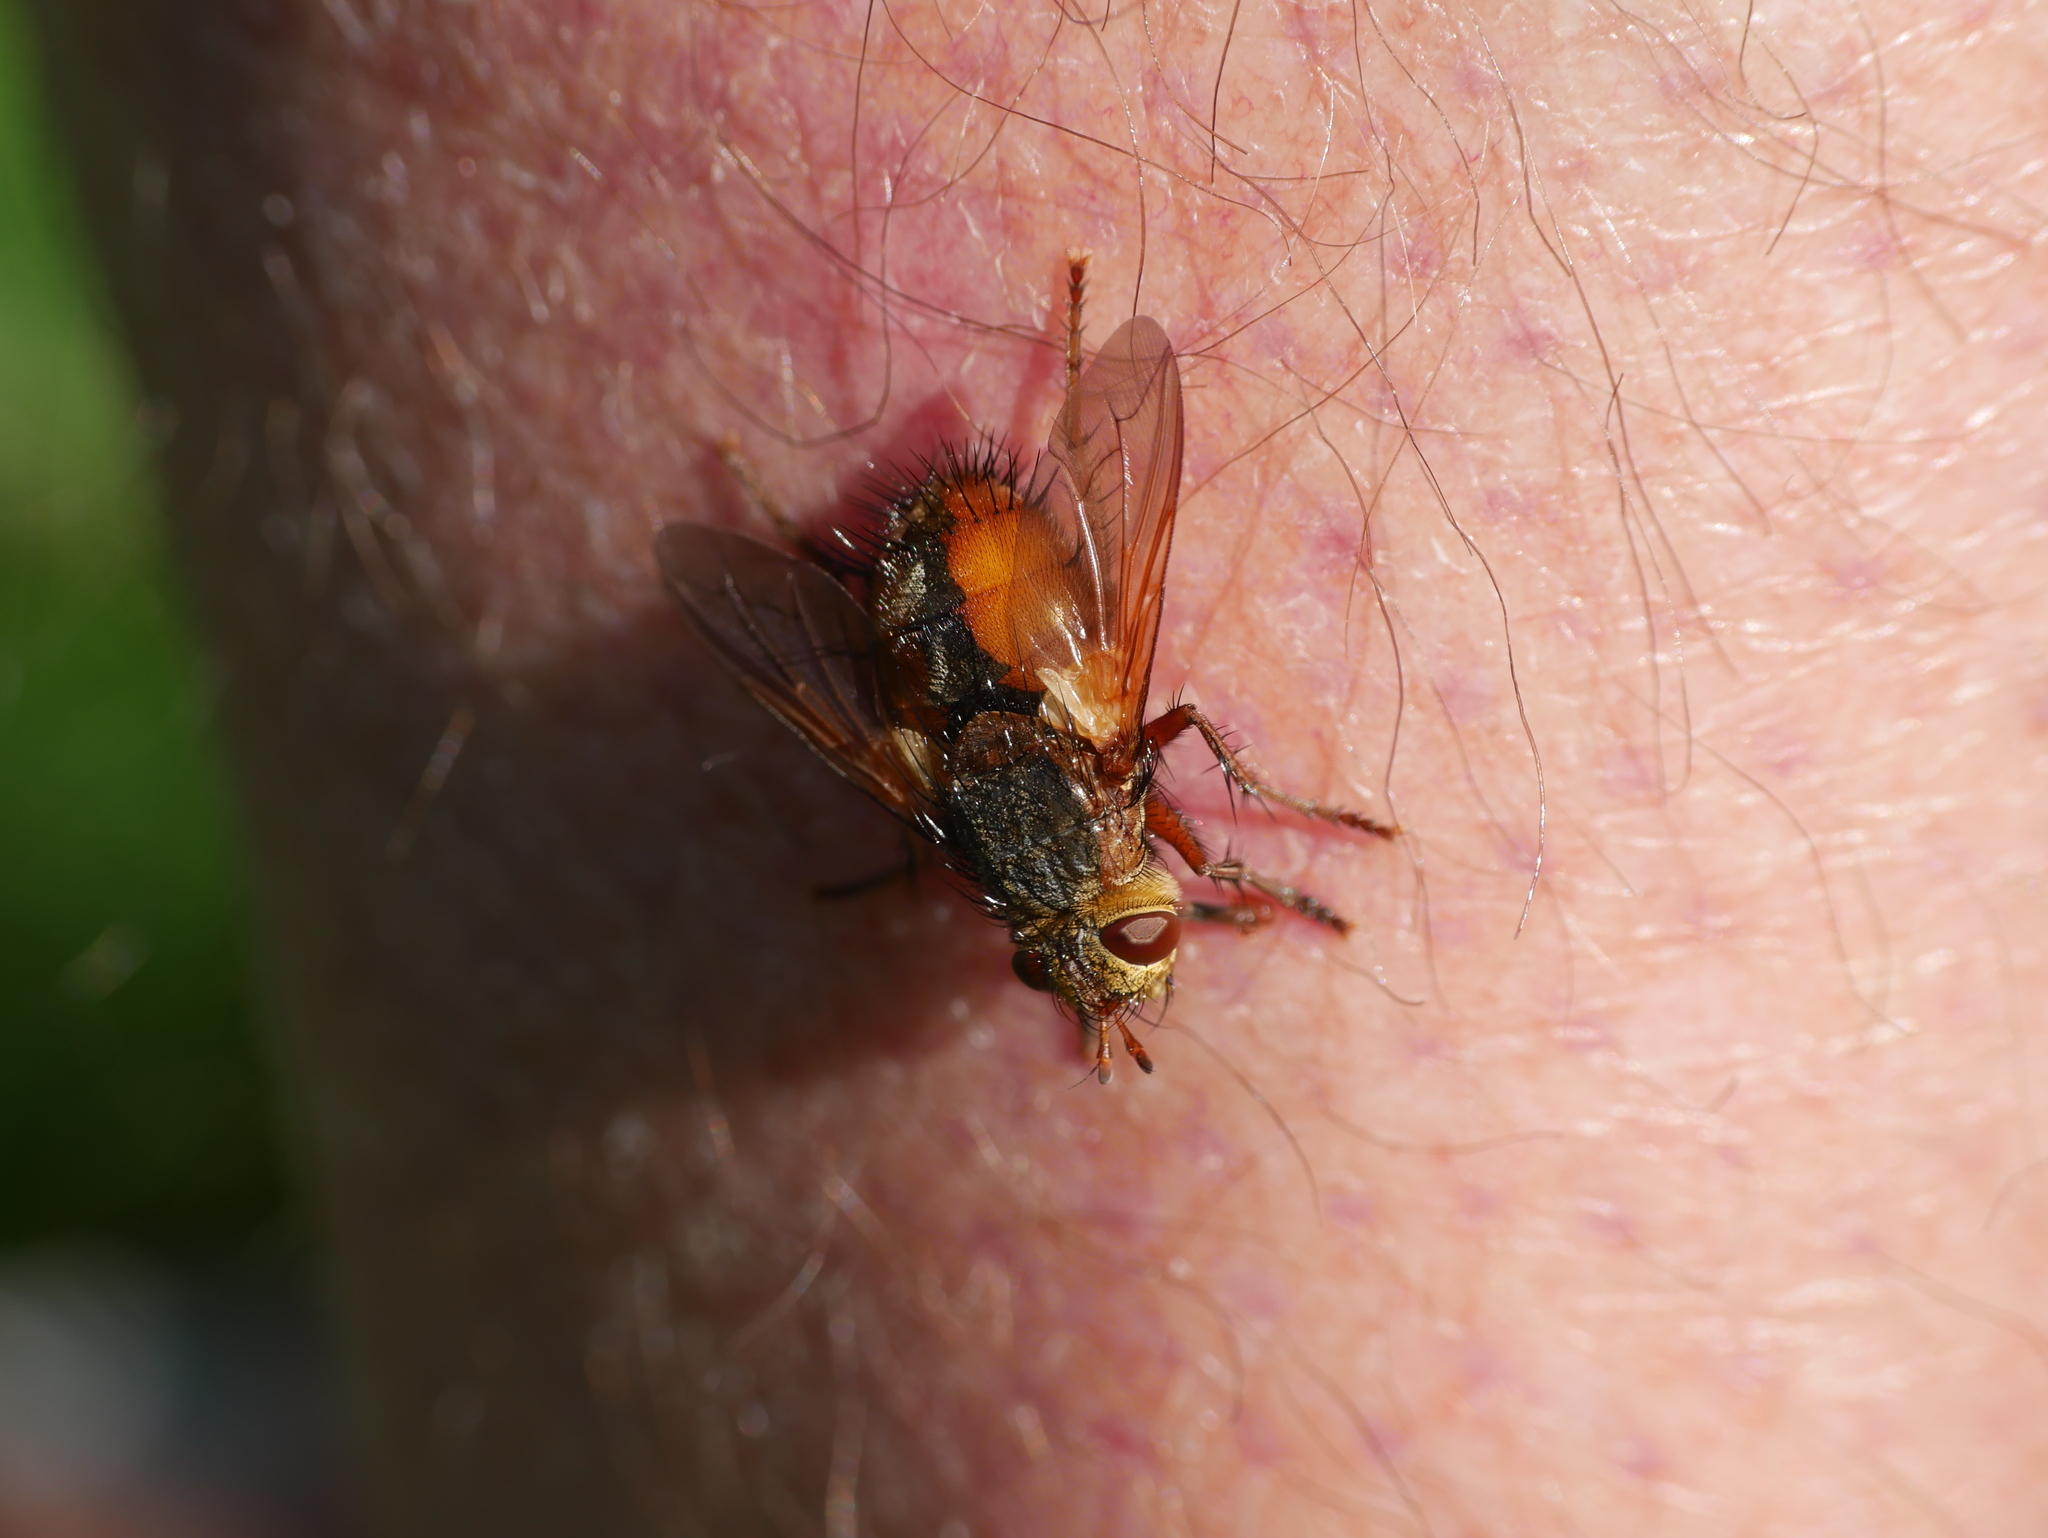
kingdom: Animalia
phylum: Arthropoda
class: Insecta
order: Diptera
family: Tachinidae
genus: Tachina
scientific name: Tachina fera
